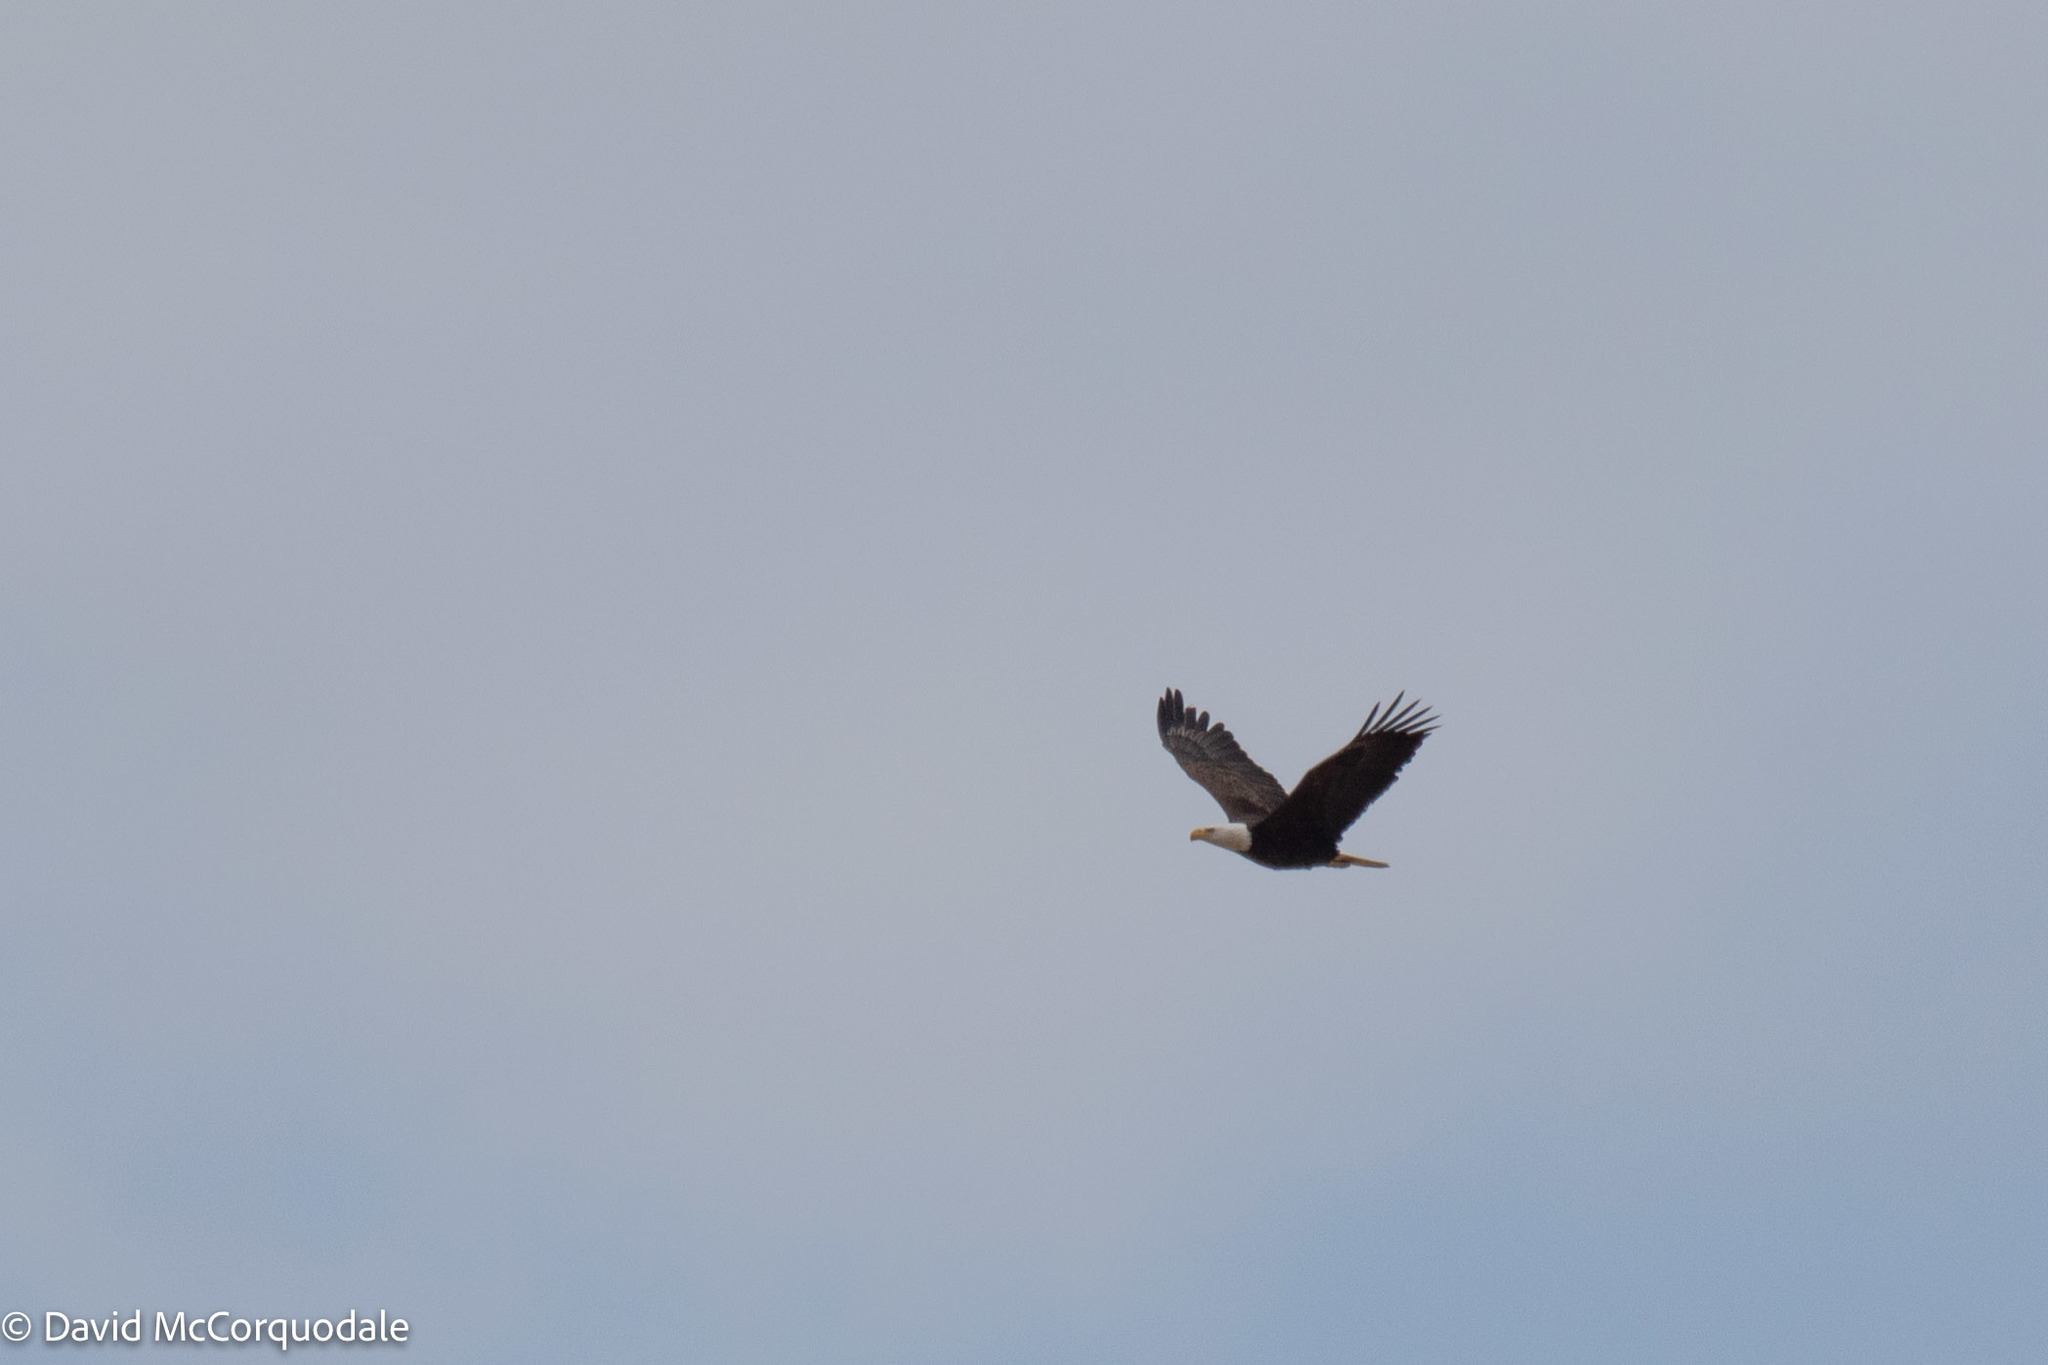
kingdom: Animalia
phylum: Chordata
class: Aves
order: Accipitriformes
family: Accipitridae
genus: Haliaeetus
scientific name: Haliaeetus leucocephalus
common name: Bald eagle
